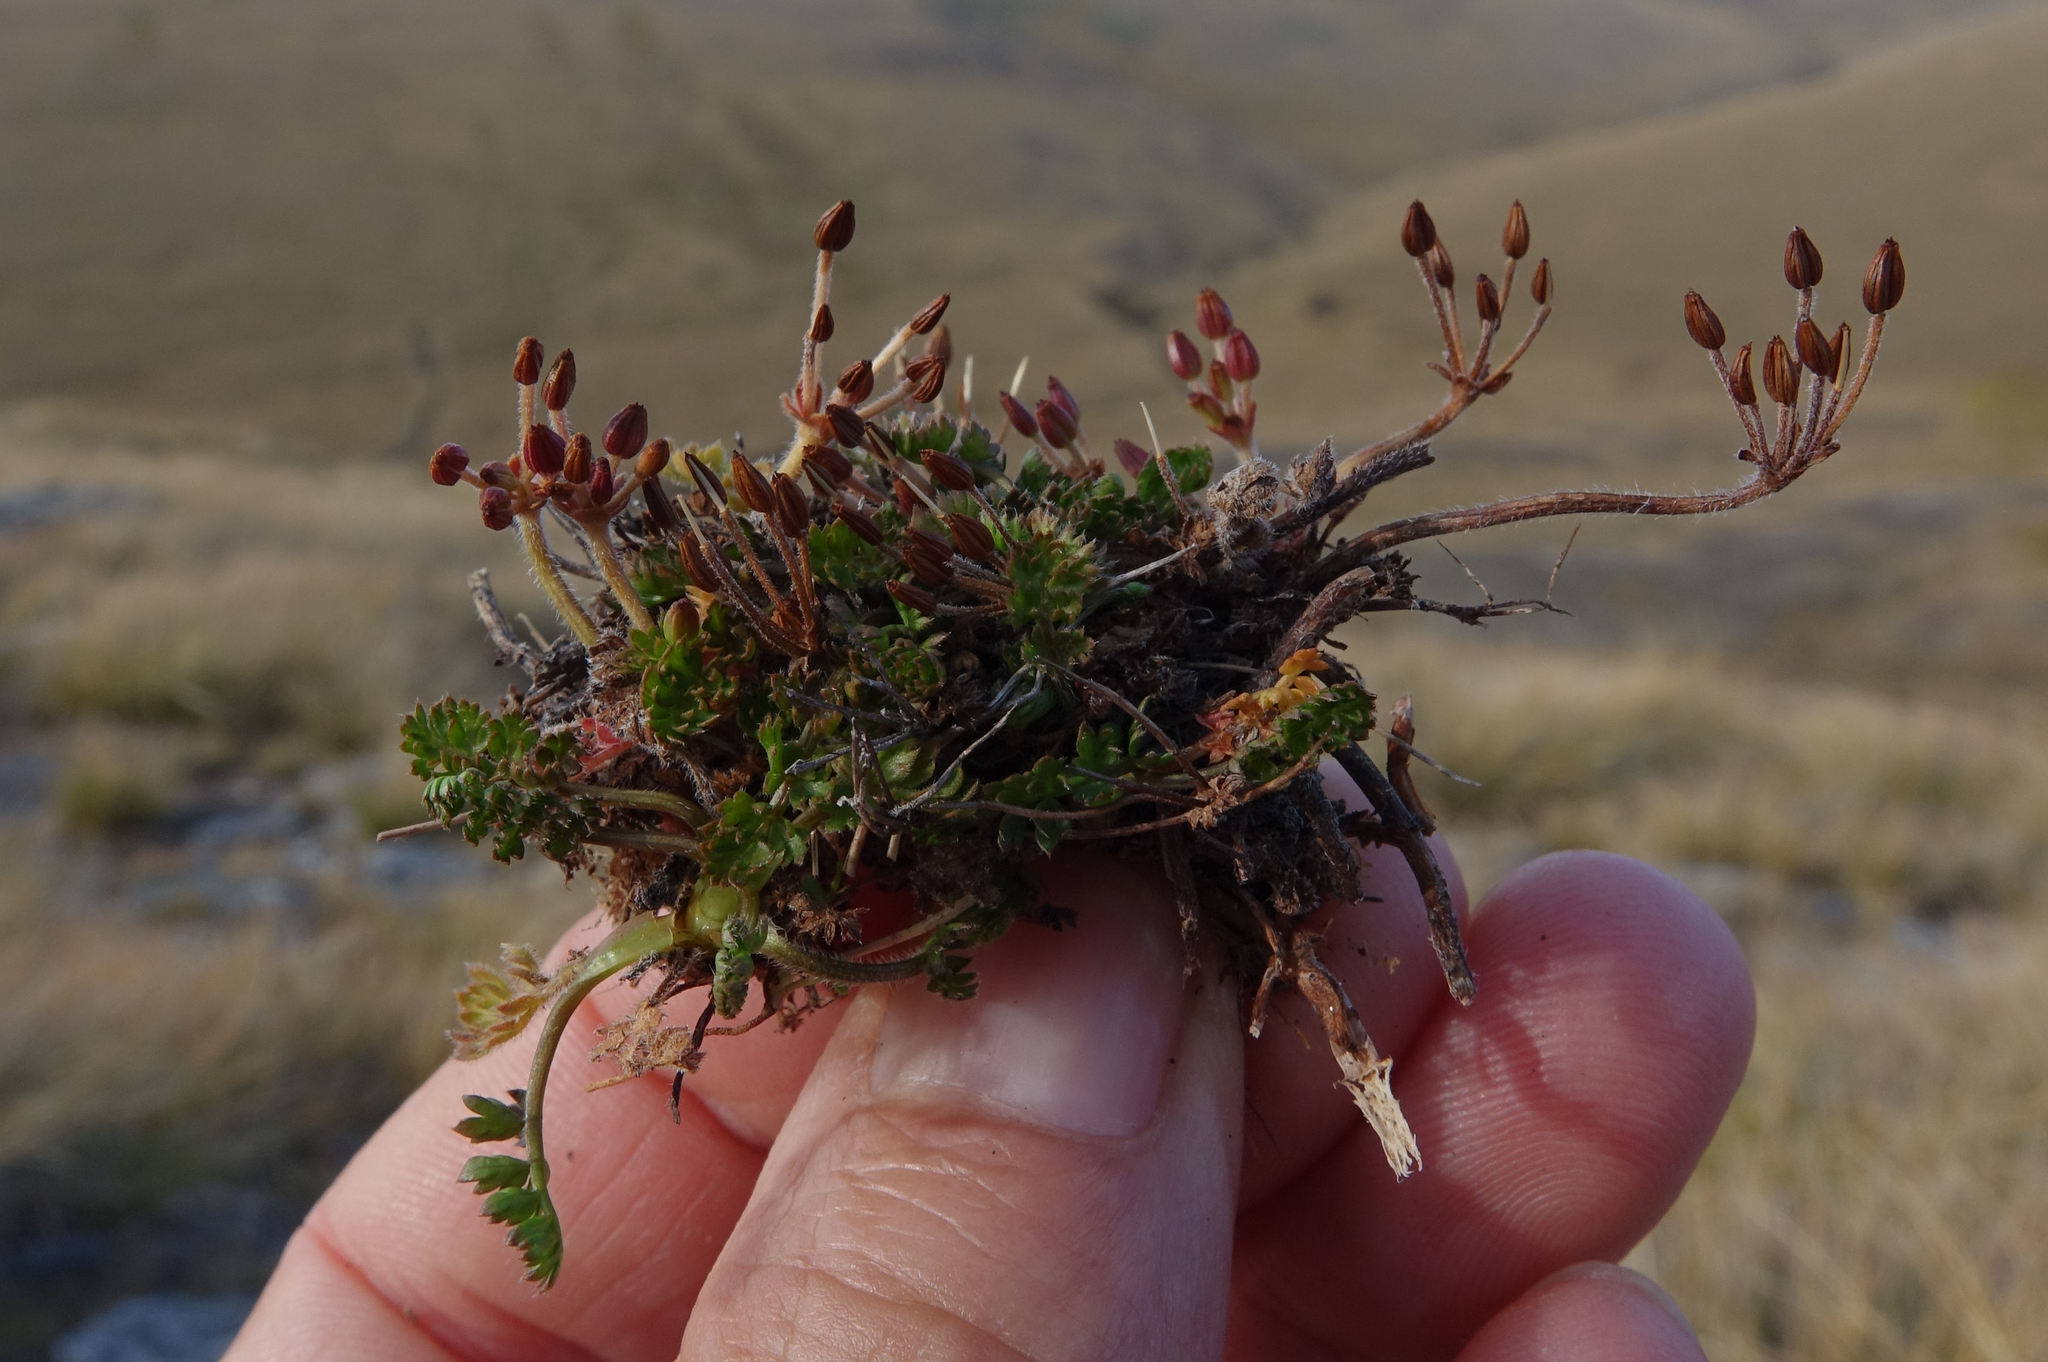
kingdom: Plantae
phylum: Tracheophyta
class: Magnoliopsida
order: Apiales
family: Apiaceae
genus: Chaerophyllum
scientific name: Chaerophyllum colensoi
